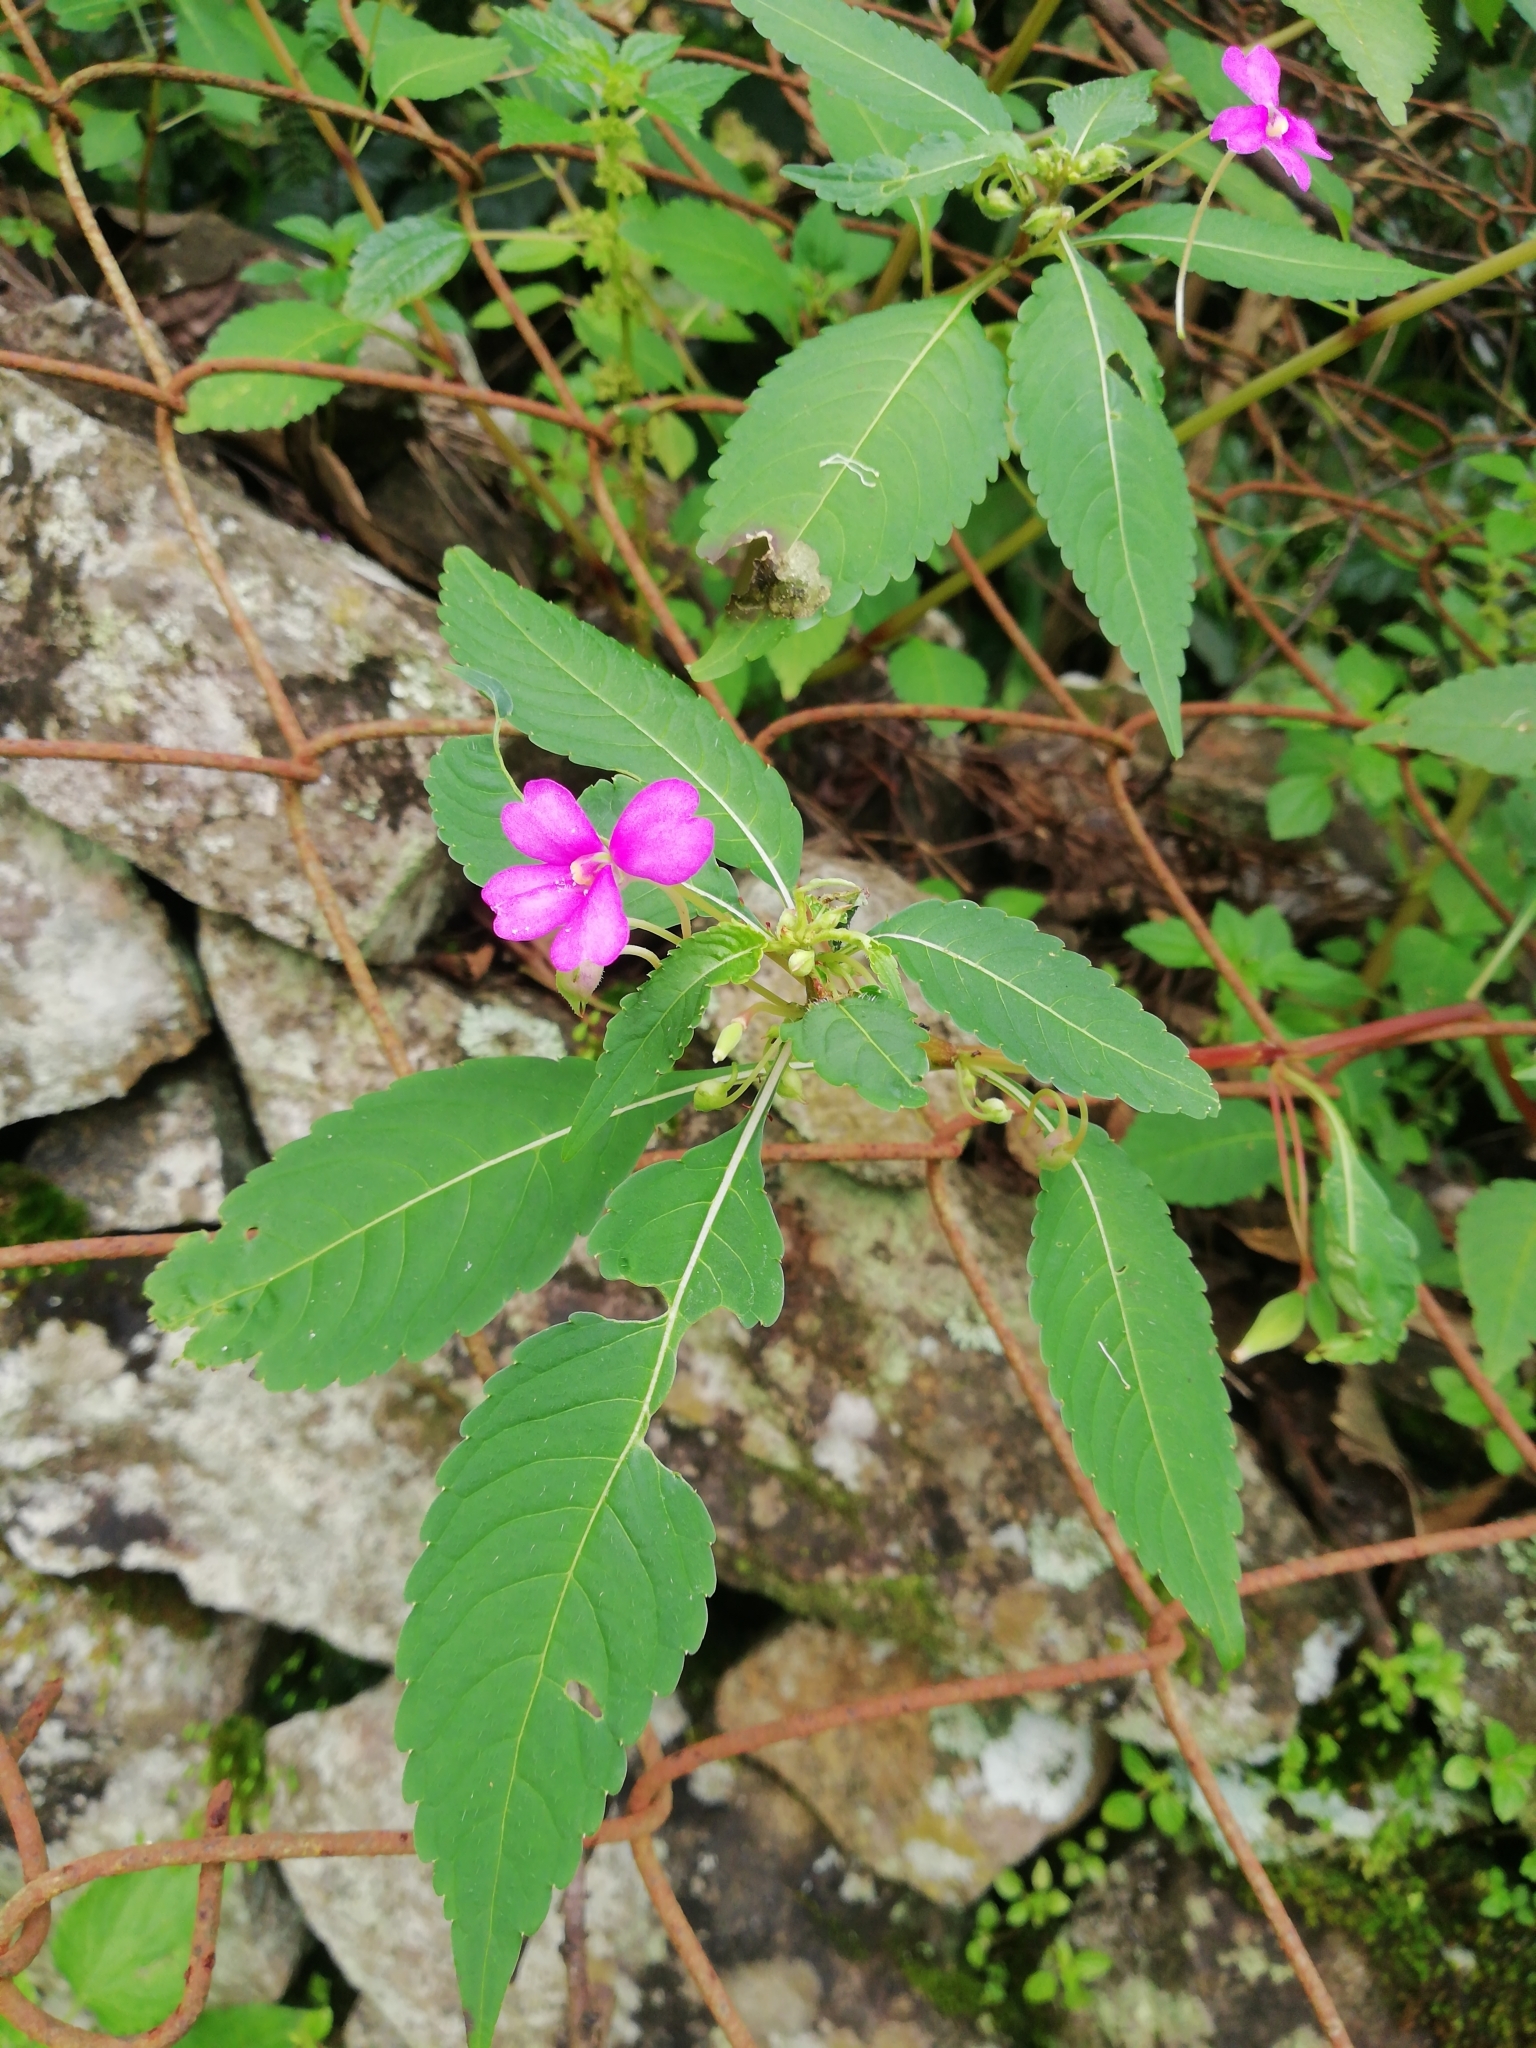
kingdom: Plantae
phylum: Tracheophyta
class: Magnoliopsida
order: Ericales
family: Balsaminaceae
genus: Impatiens
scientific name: Impatiens dasysperma
